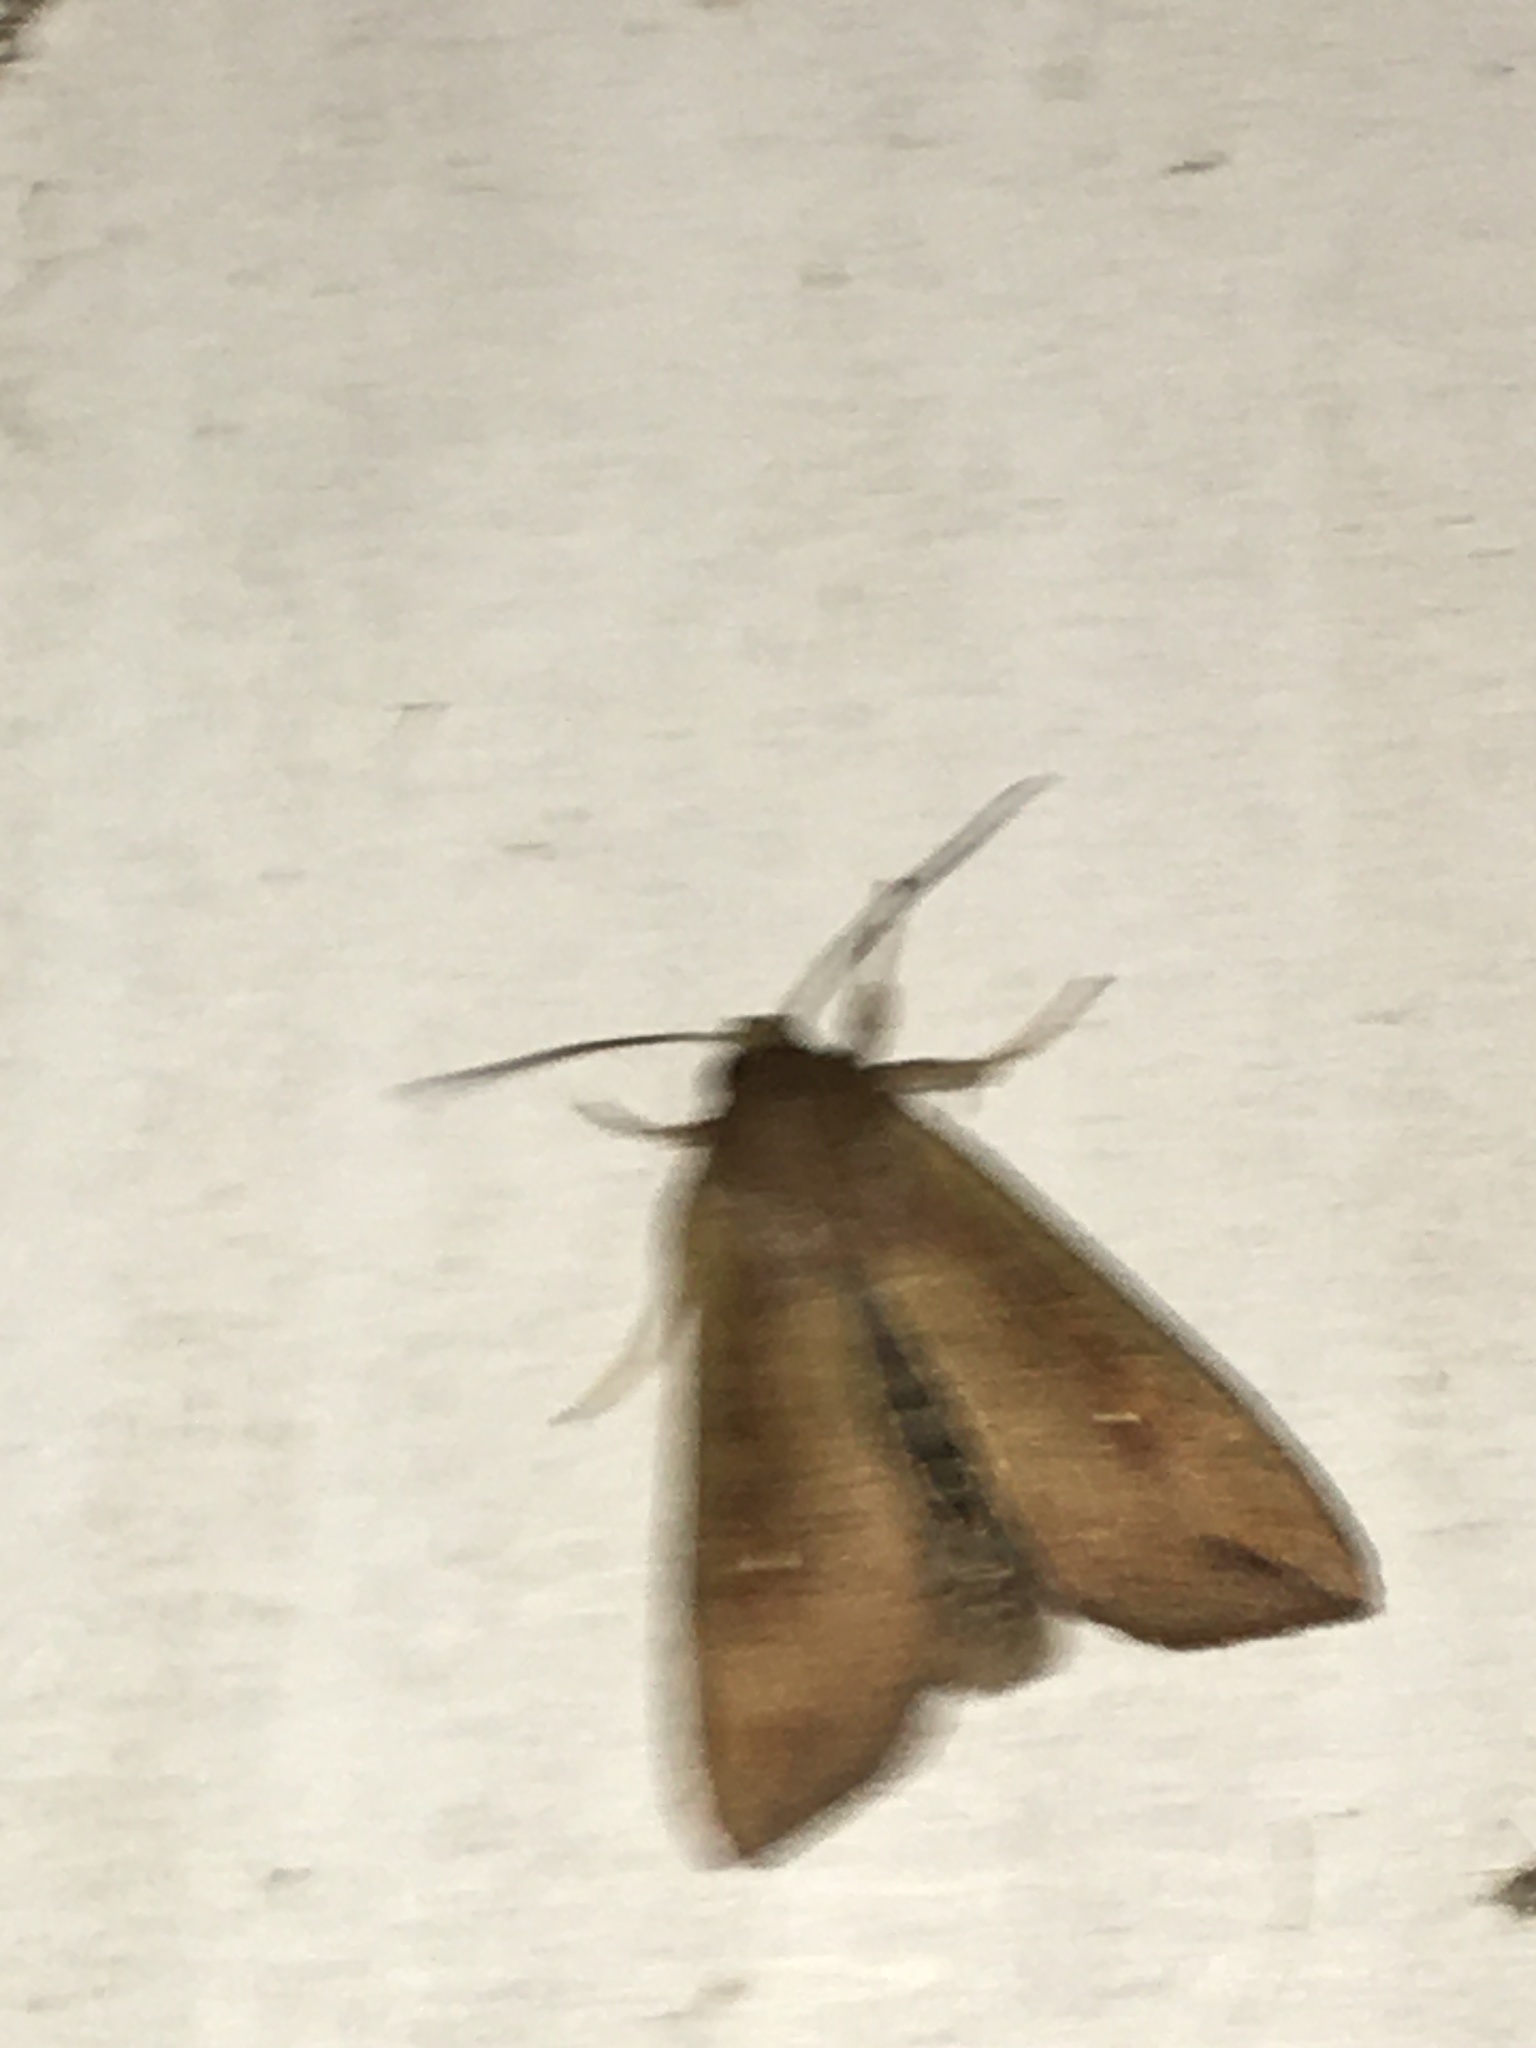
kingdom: Animalia
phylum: Arthropoda
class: Insecta
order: Lepidoptera
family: Noctuidae
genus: Mythimna
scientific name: Mythimna unipuncta
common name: White-speck
